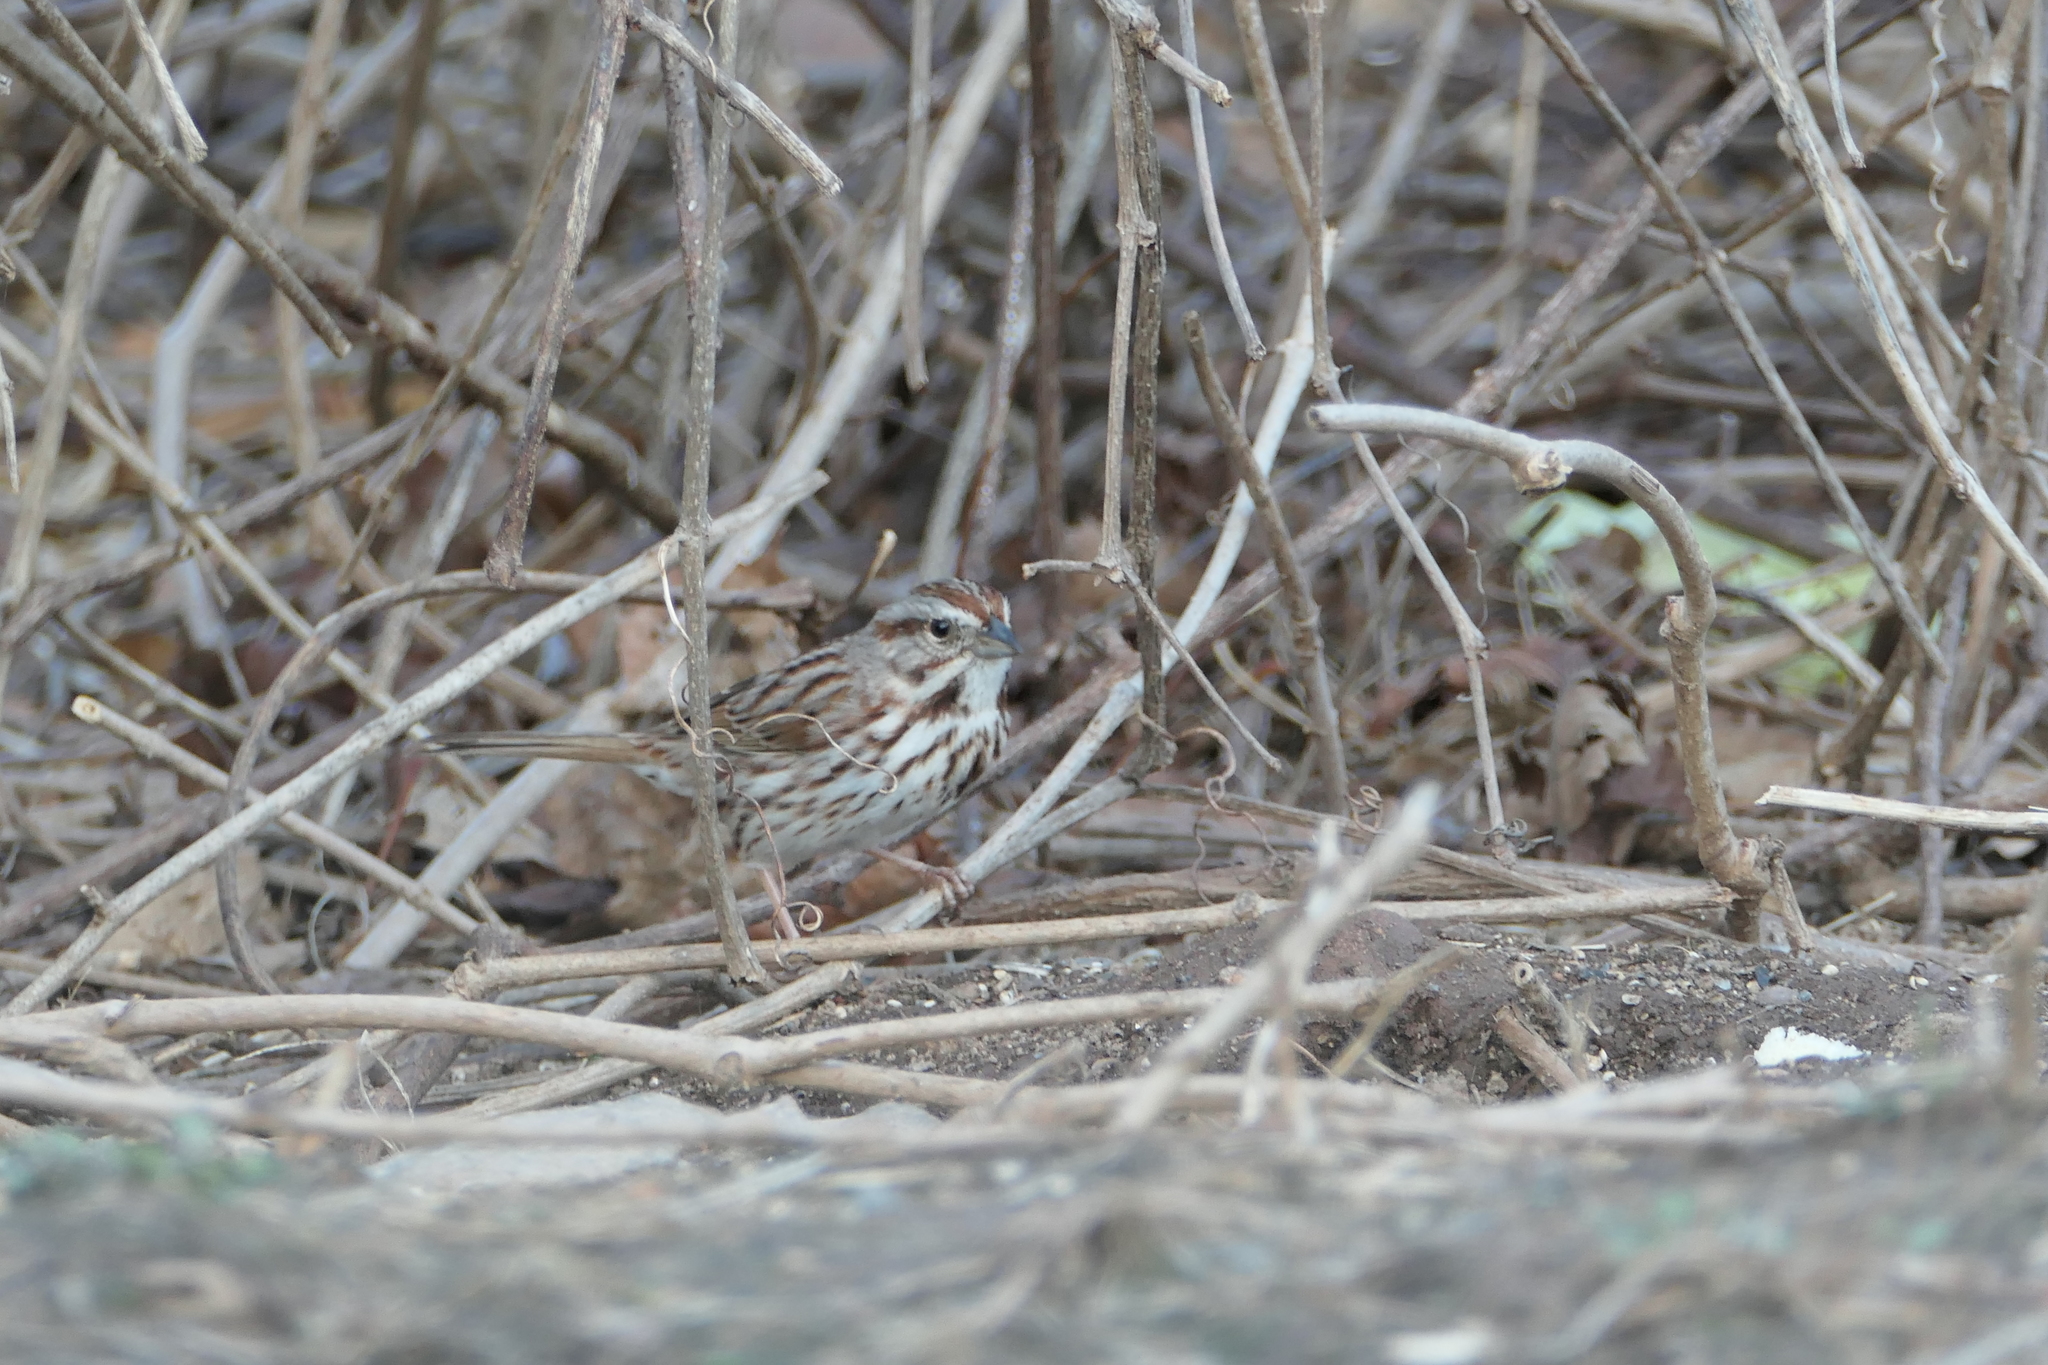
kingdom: Animalia
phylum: Chordata
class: Aves
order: Passeriformes
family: Passerellidae
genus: Melospiza
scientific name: Melospiza melodia
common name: Song sparrow
